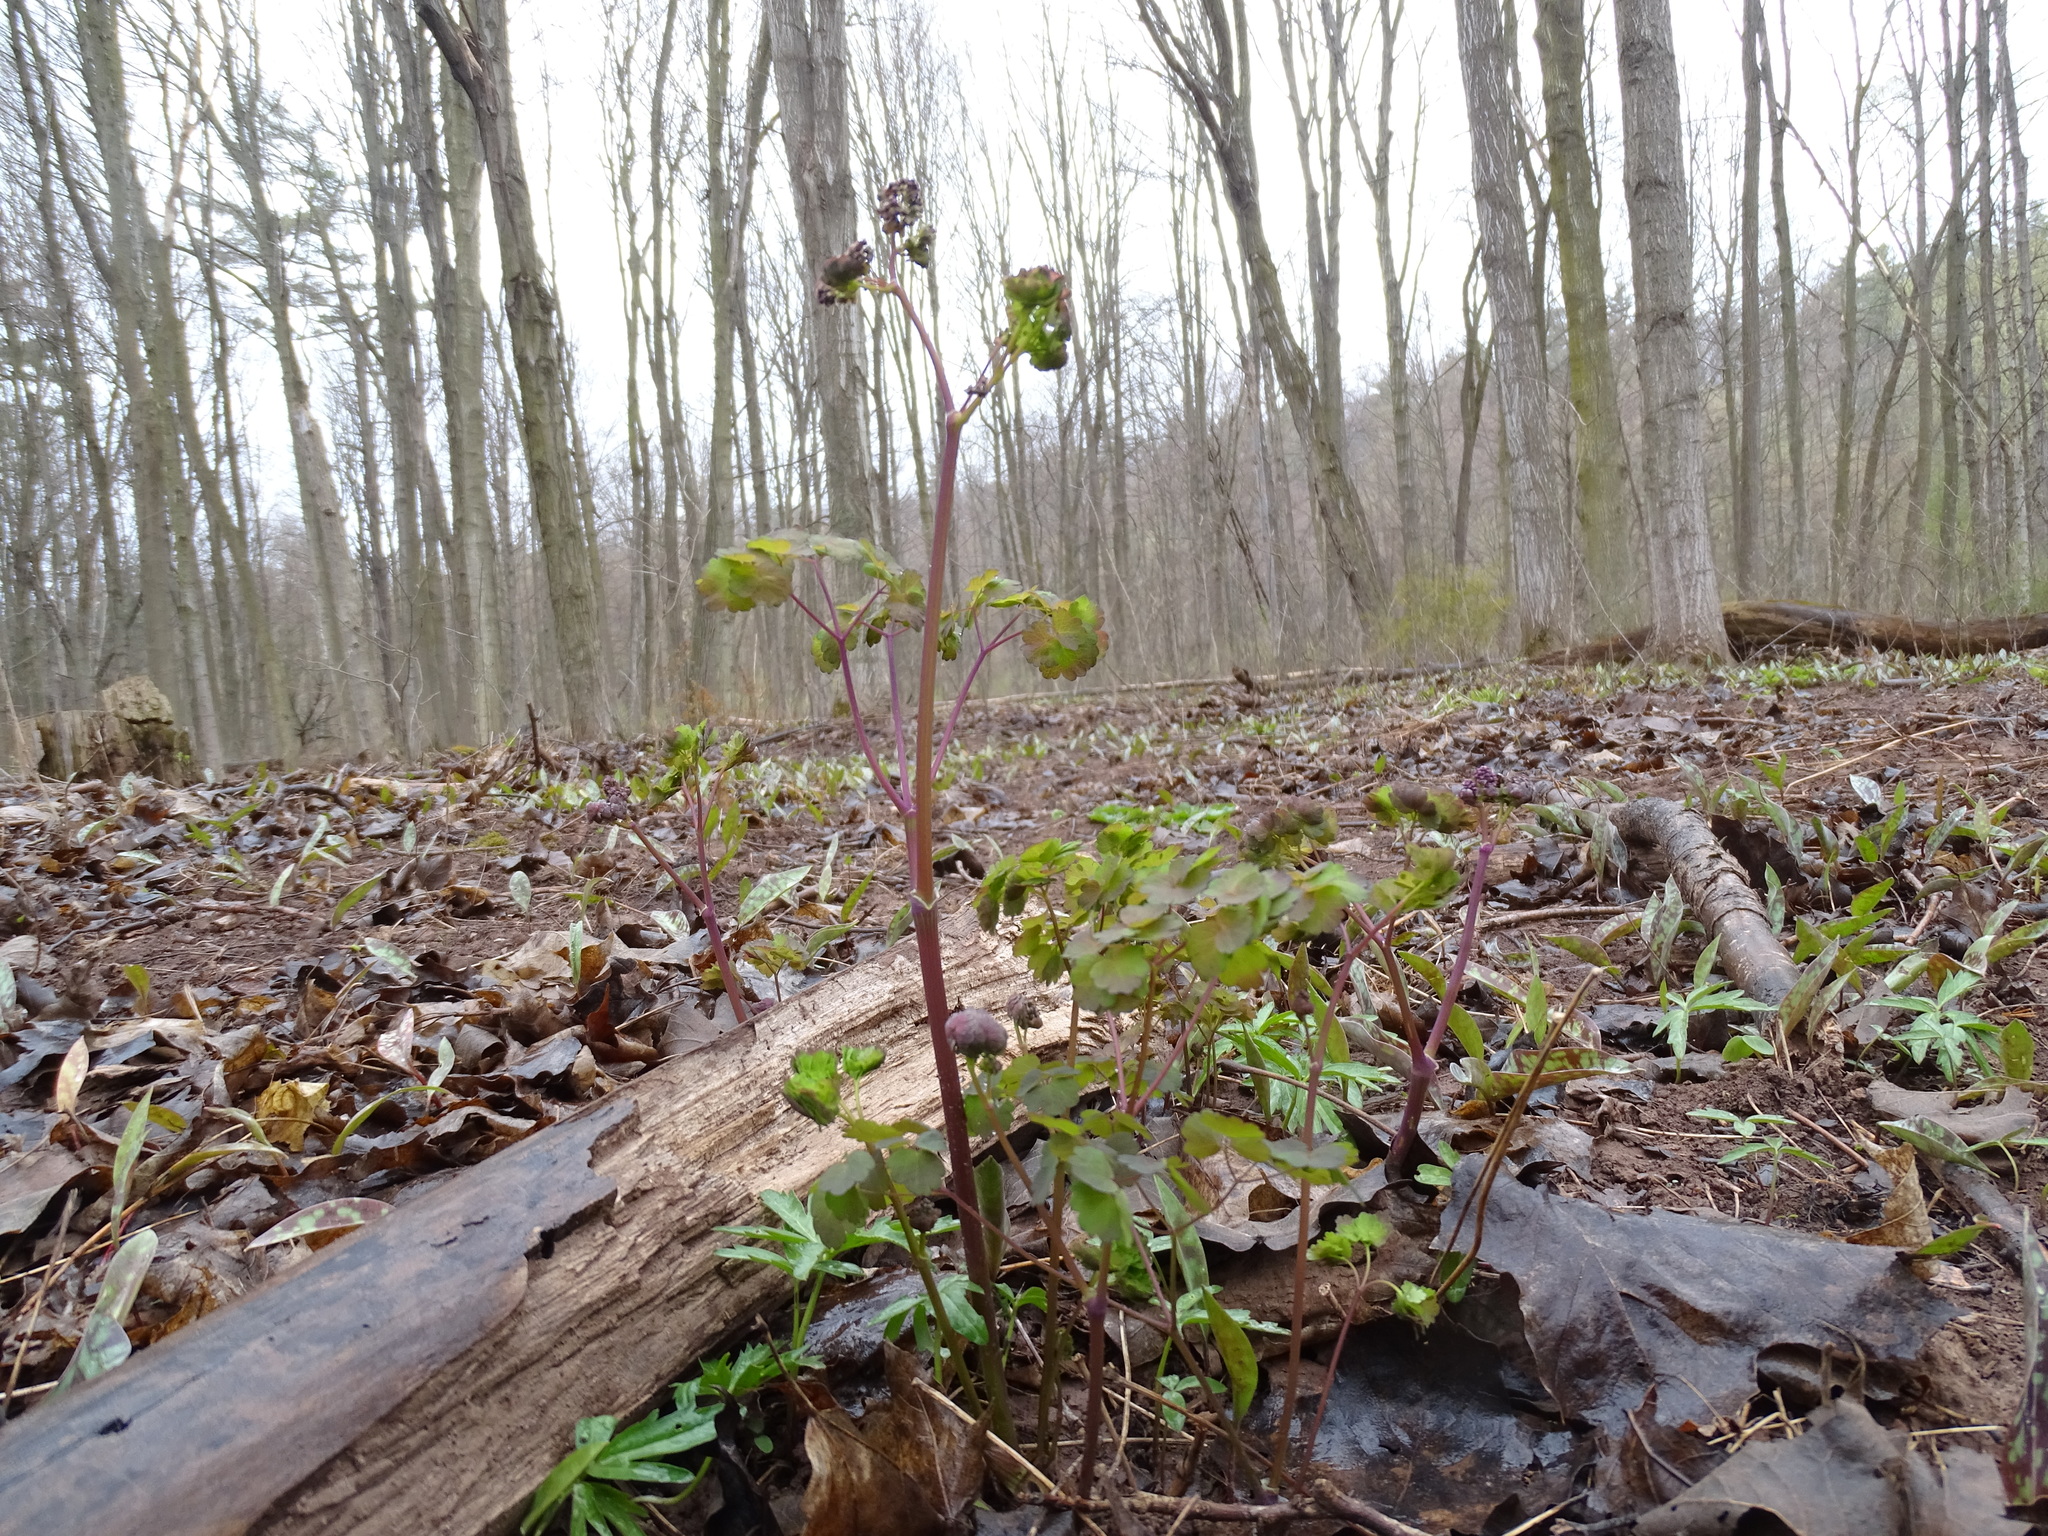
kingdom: Plantae
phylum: Tracheophyta
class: Magnoliopsida
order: Ranunculales
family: Ranunculaceae
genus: Thalictrum
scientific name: Thalictrum dioicum
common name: Early meadow-rue
